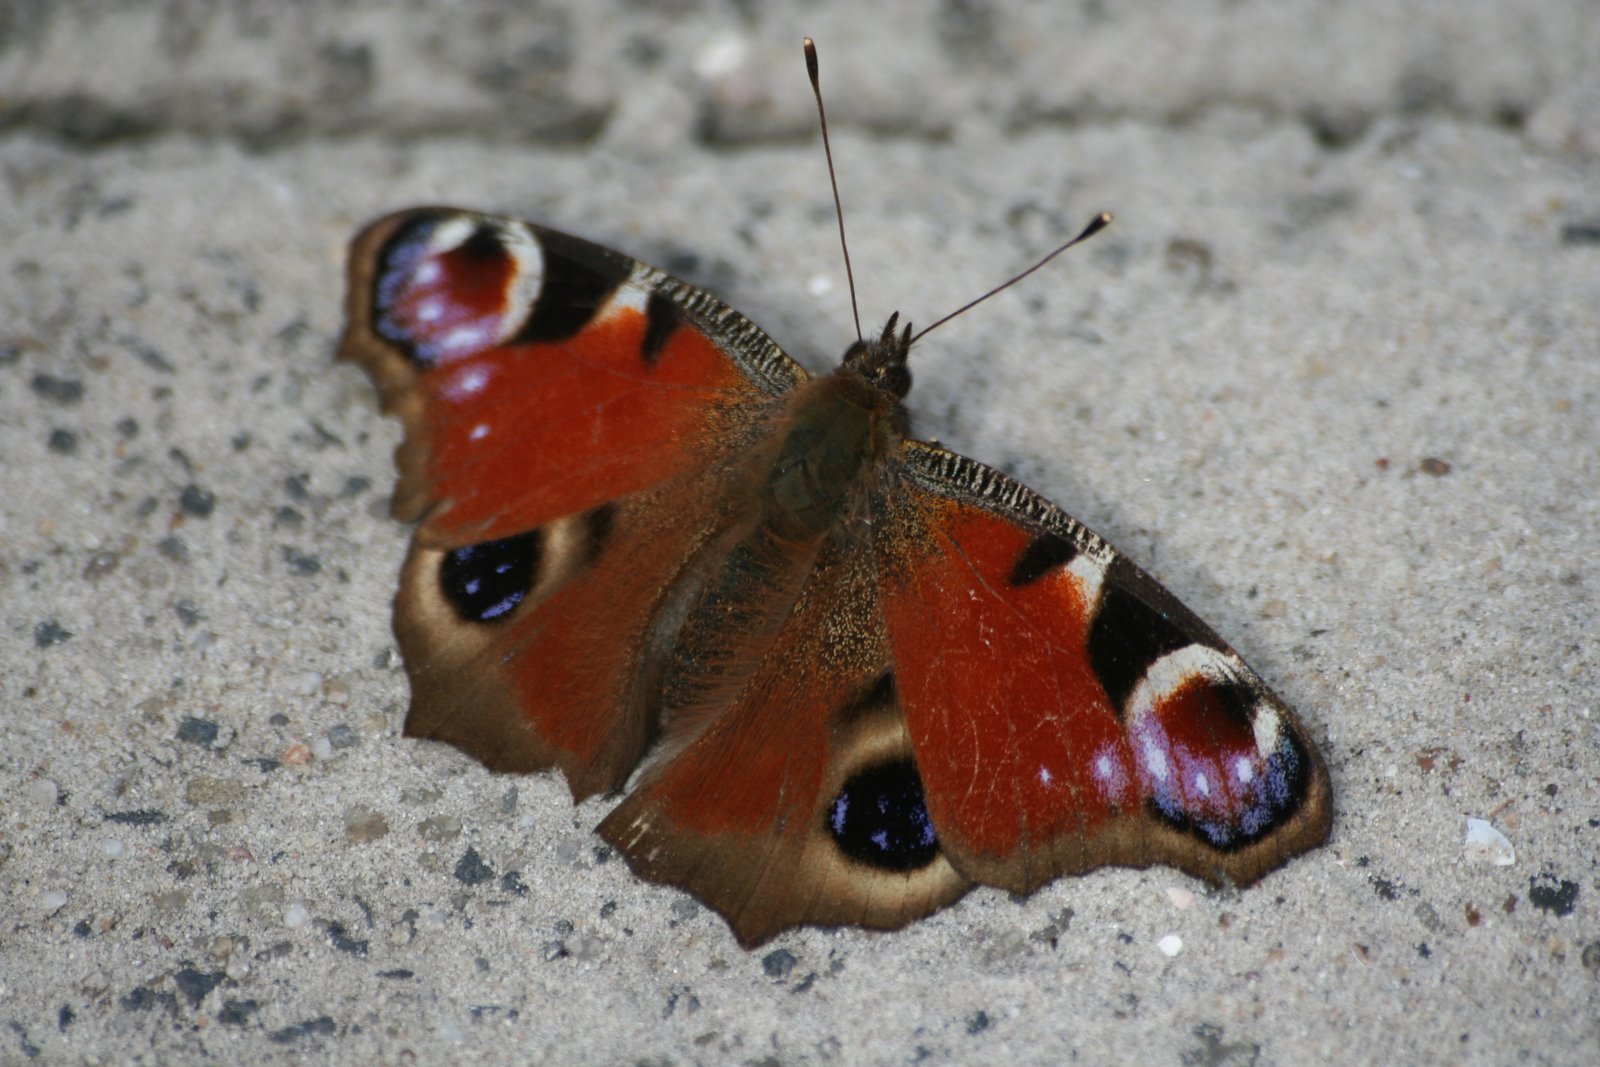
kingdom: Animalia
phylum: Arthropoda
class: Insecta
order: Lepidoptera
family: Nymphalidae
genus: Aglais
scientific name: Aglais io
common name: Peacock
